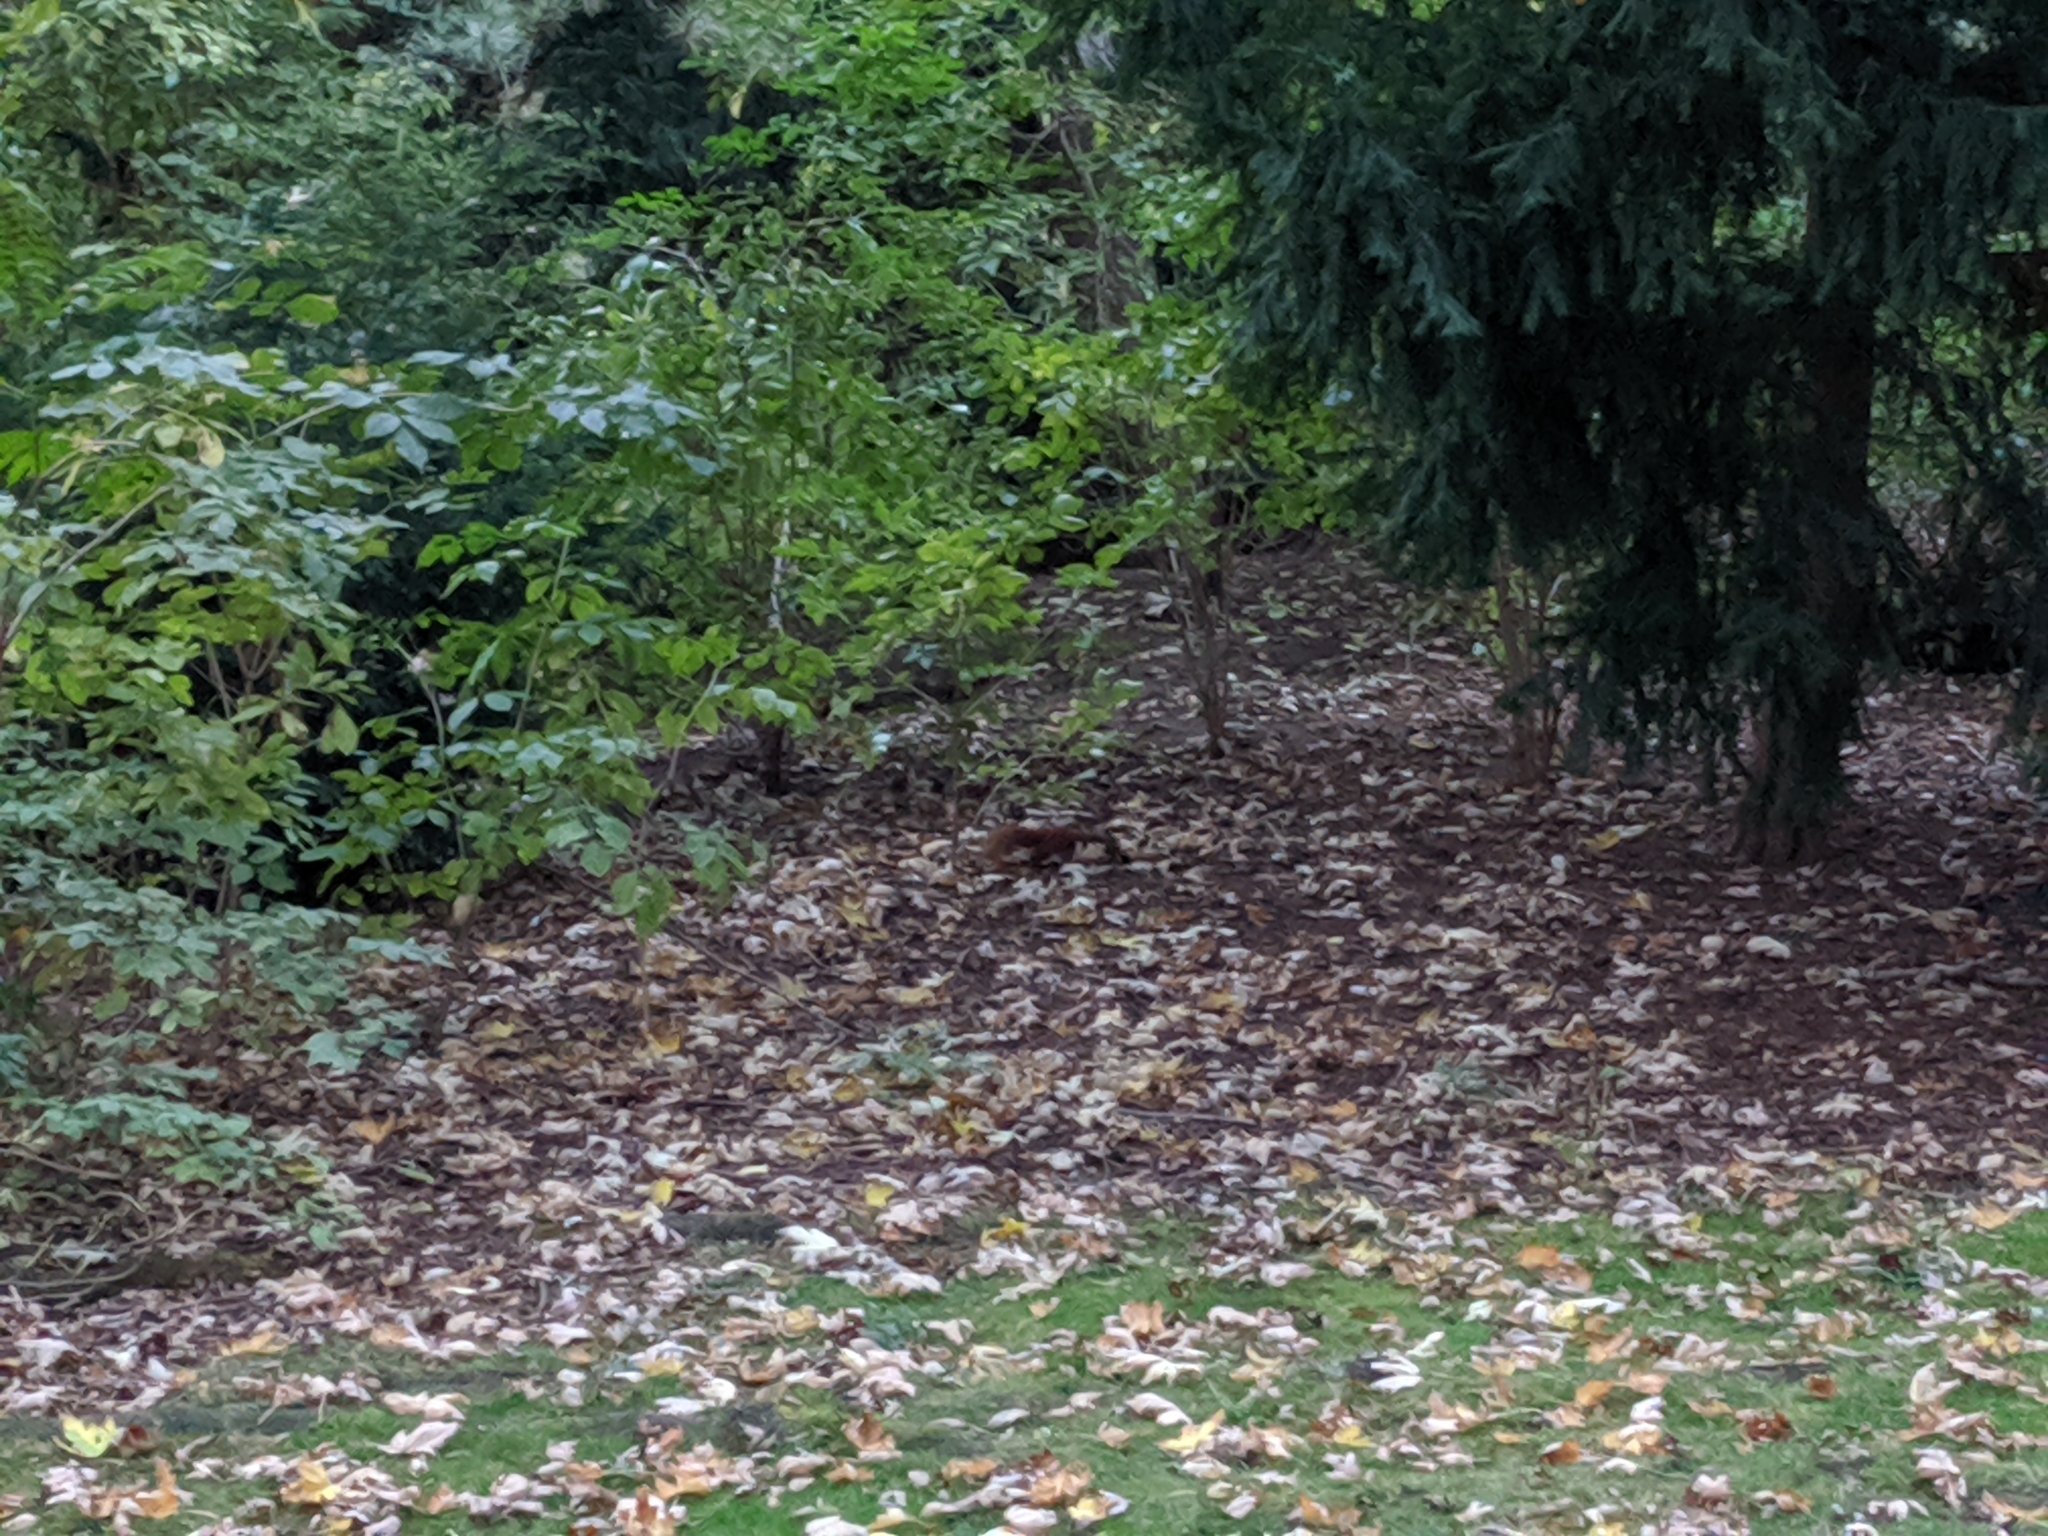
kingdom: Animalia
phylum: Chordata
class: Mammalia
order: Rodentia
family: Sciuridae
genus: Sciurus
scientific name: Sciurus vulgaris
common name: Eurasian red squirrel
